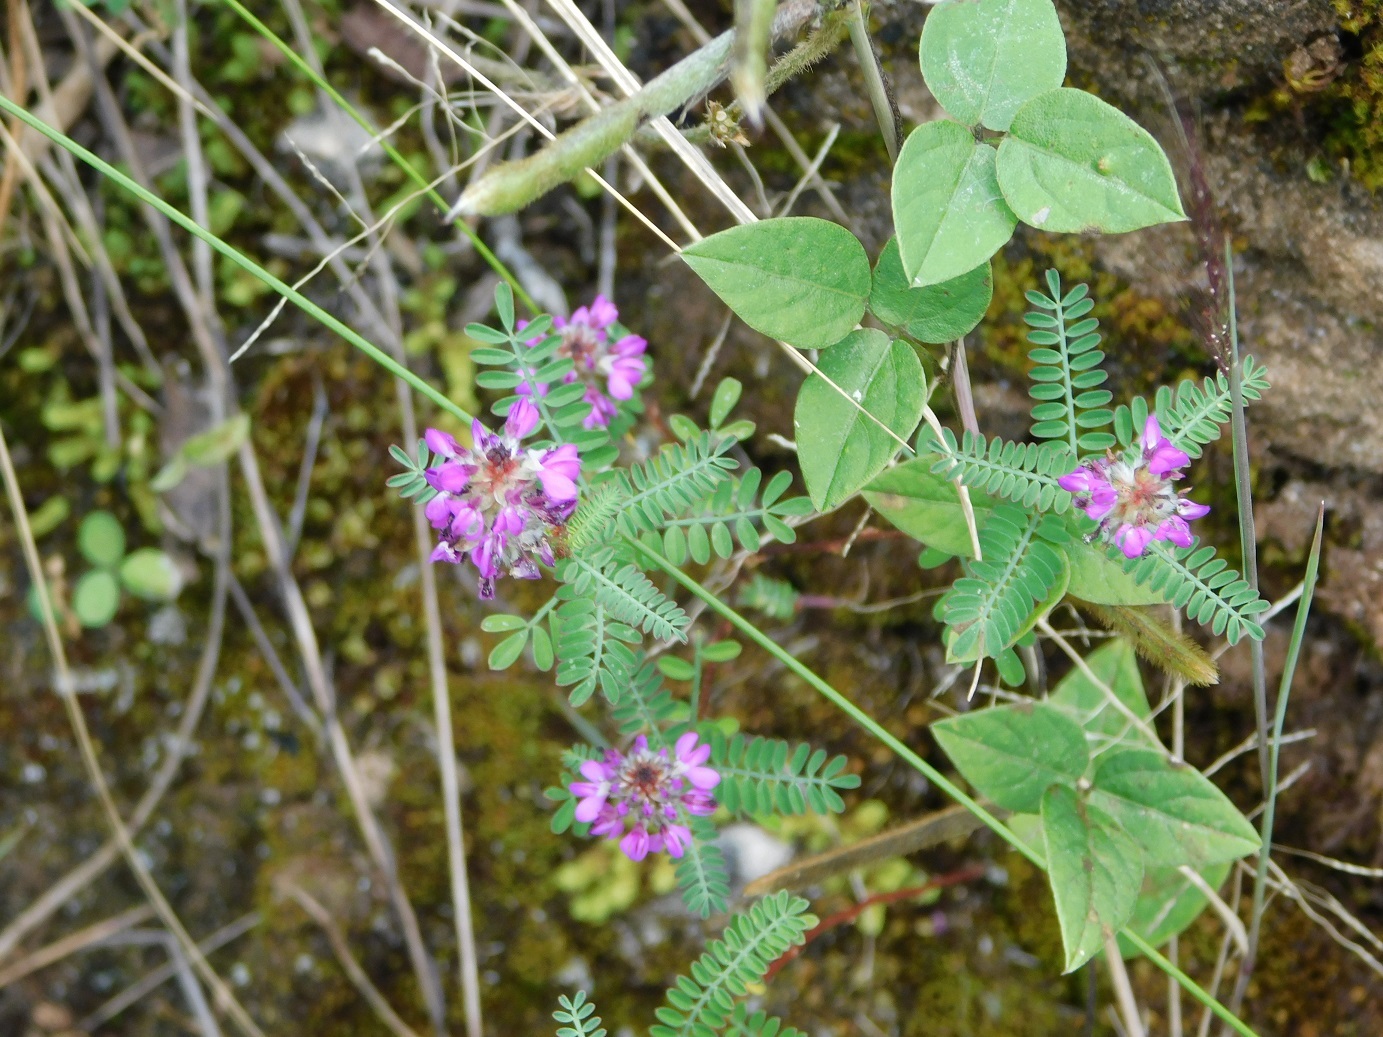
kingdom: Plantae
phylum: Tracheophyta
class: Magnoliopsida
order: Fabales
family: Fabaceae
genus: Dalea
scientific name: Dalea foliolosa
